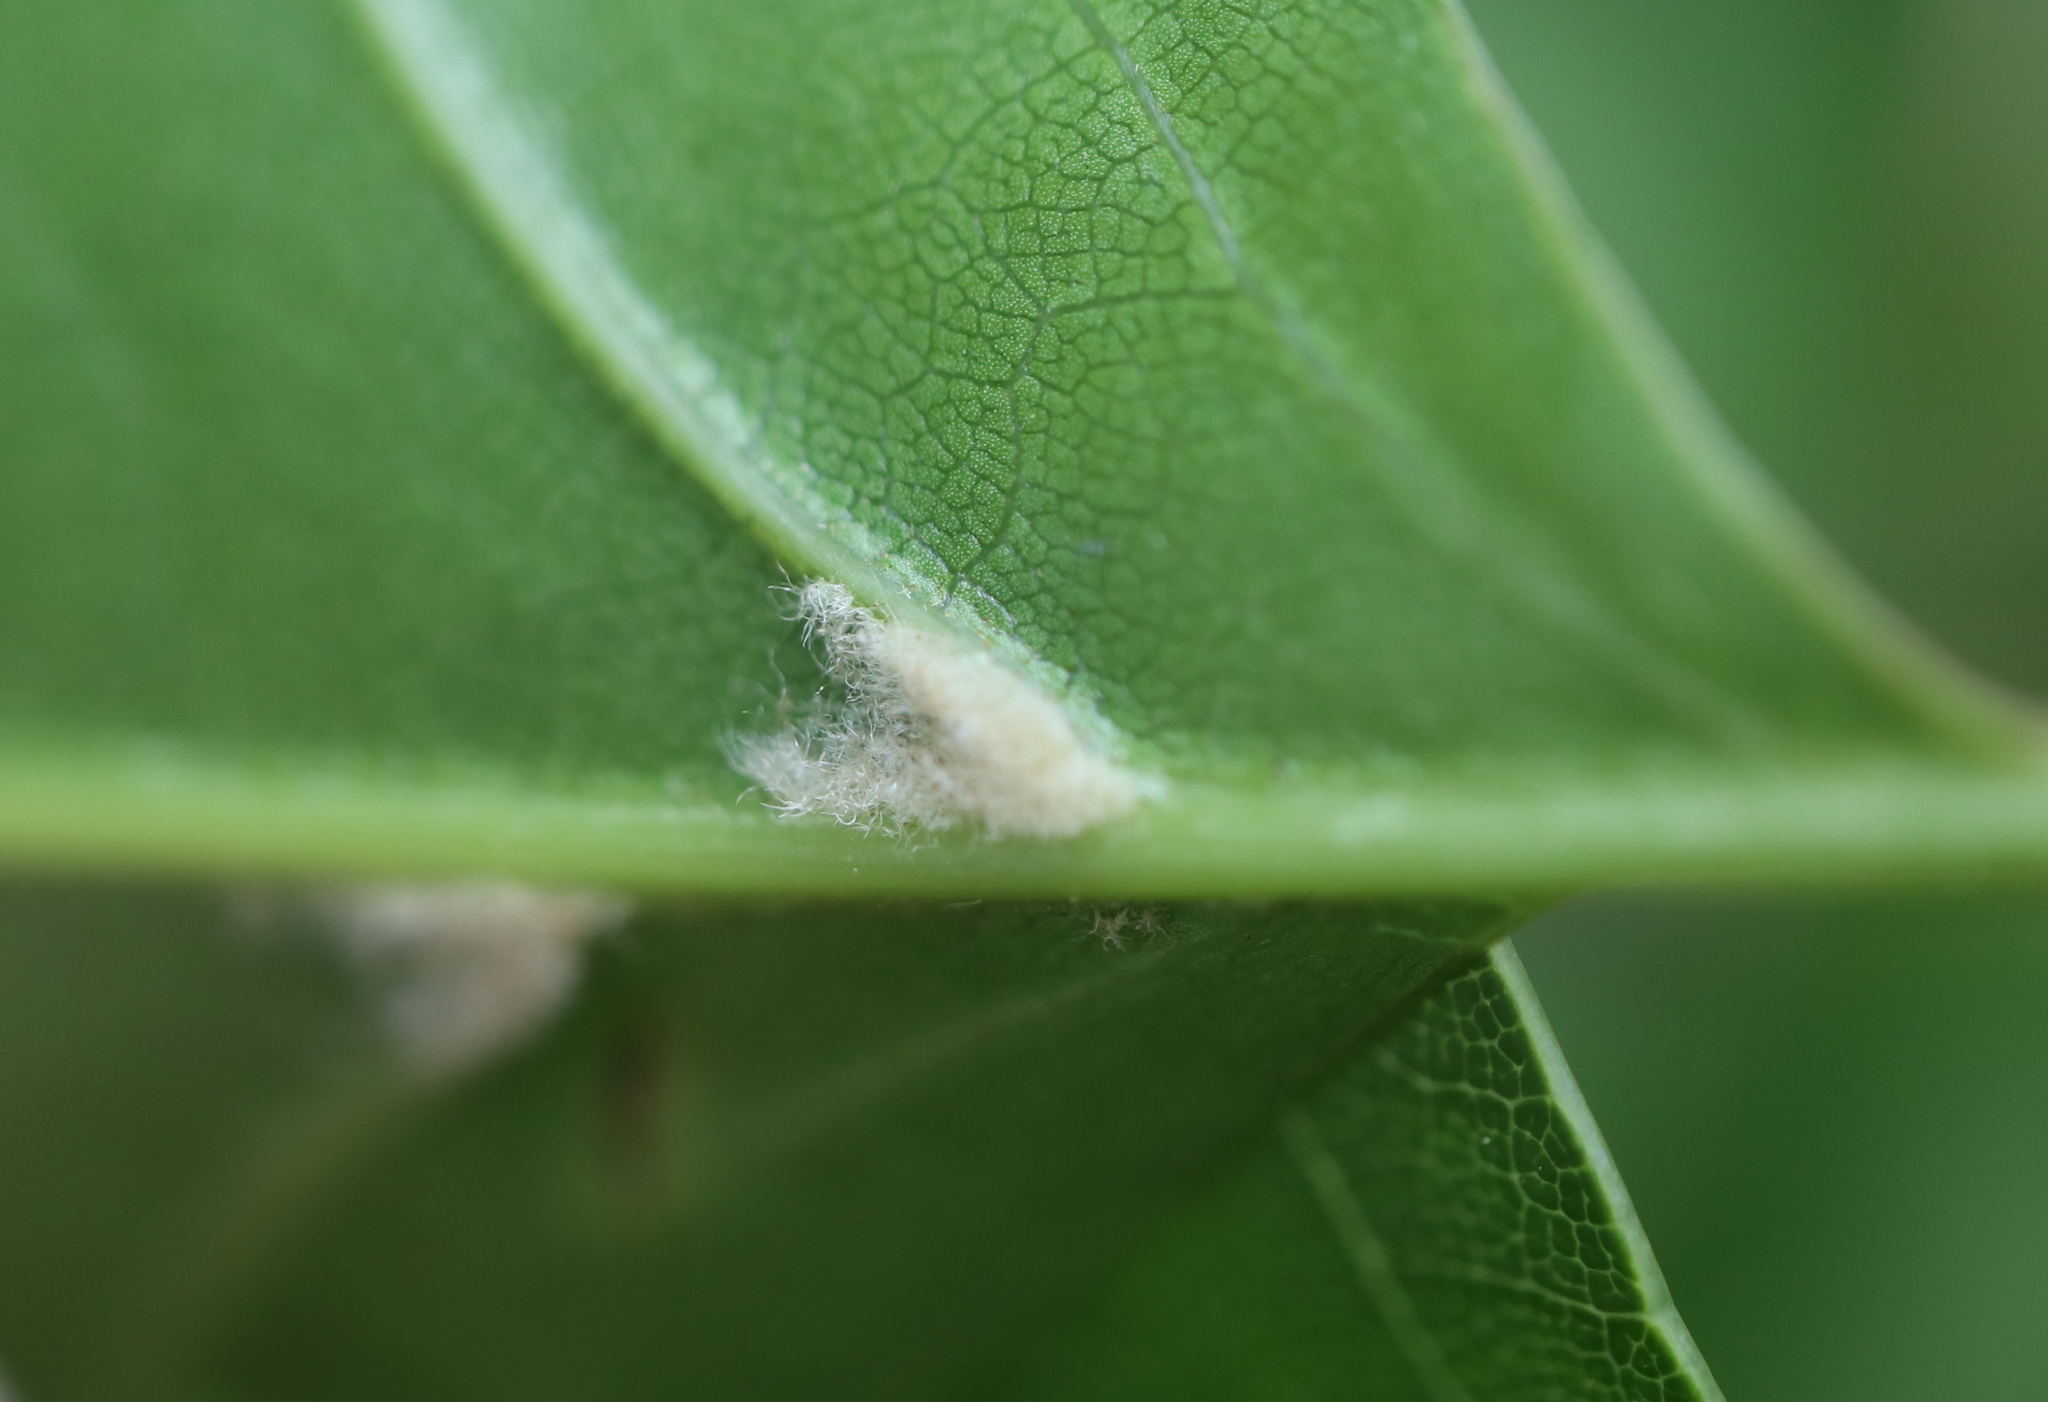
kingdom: Plantae
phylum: Tracheophyta
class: Magnoliopsida
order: Fagales
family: Fagaceae
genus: Quercus
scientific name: Quercus palustris
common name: Pin oak
